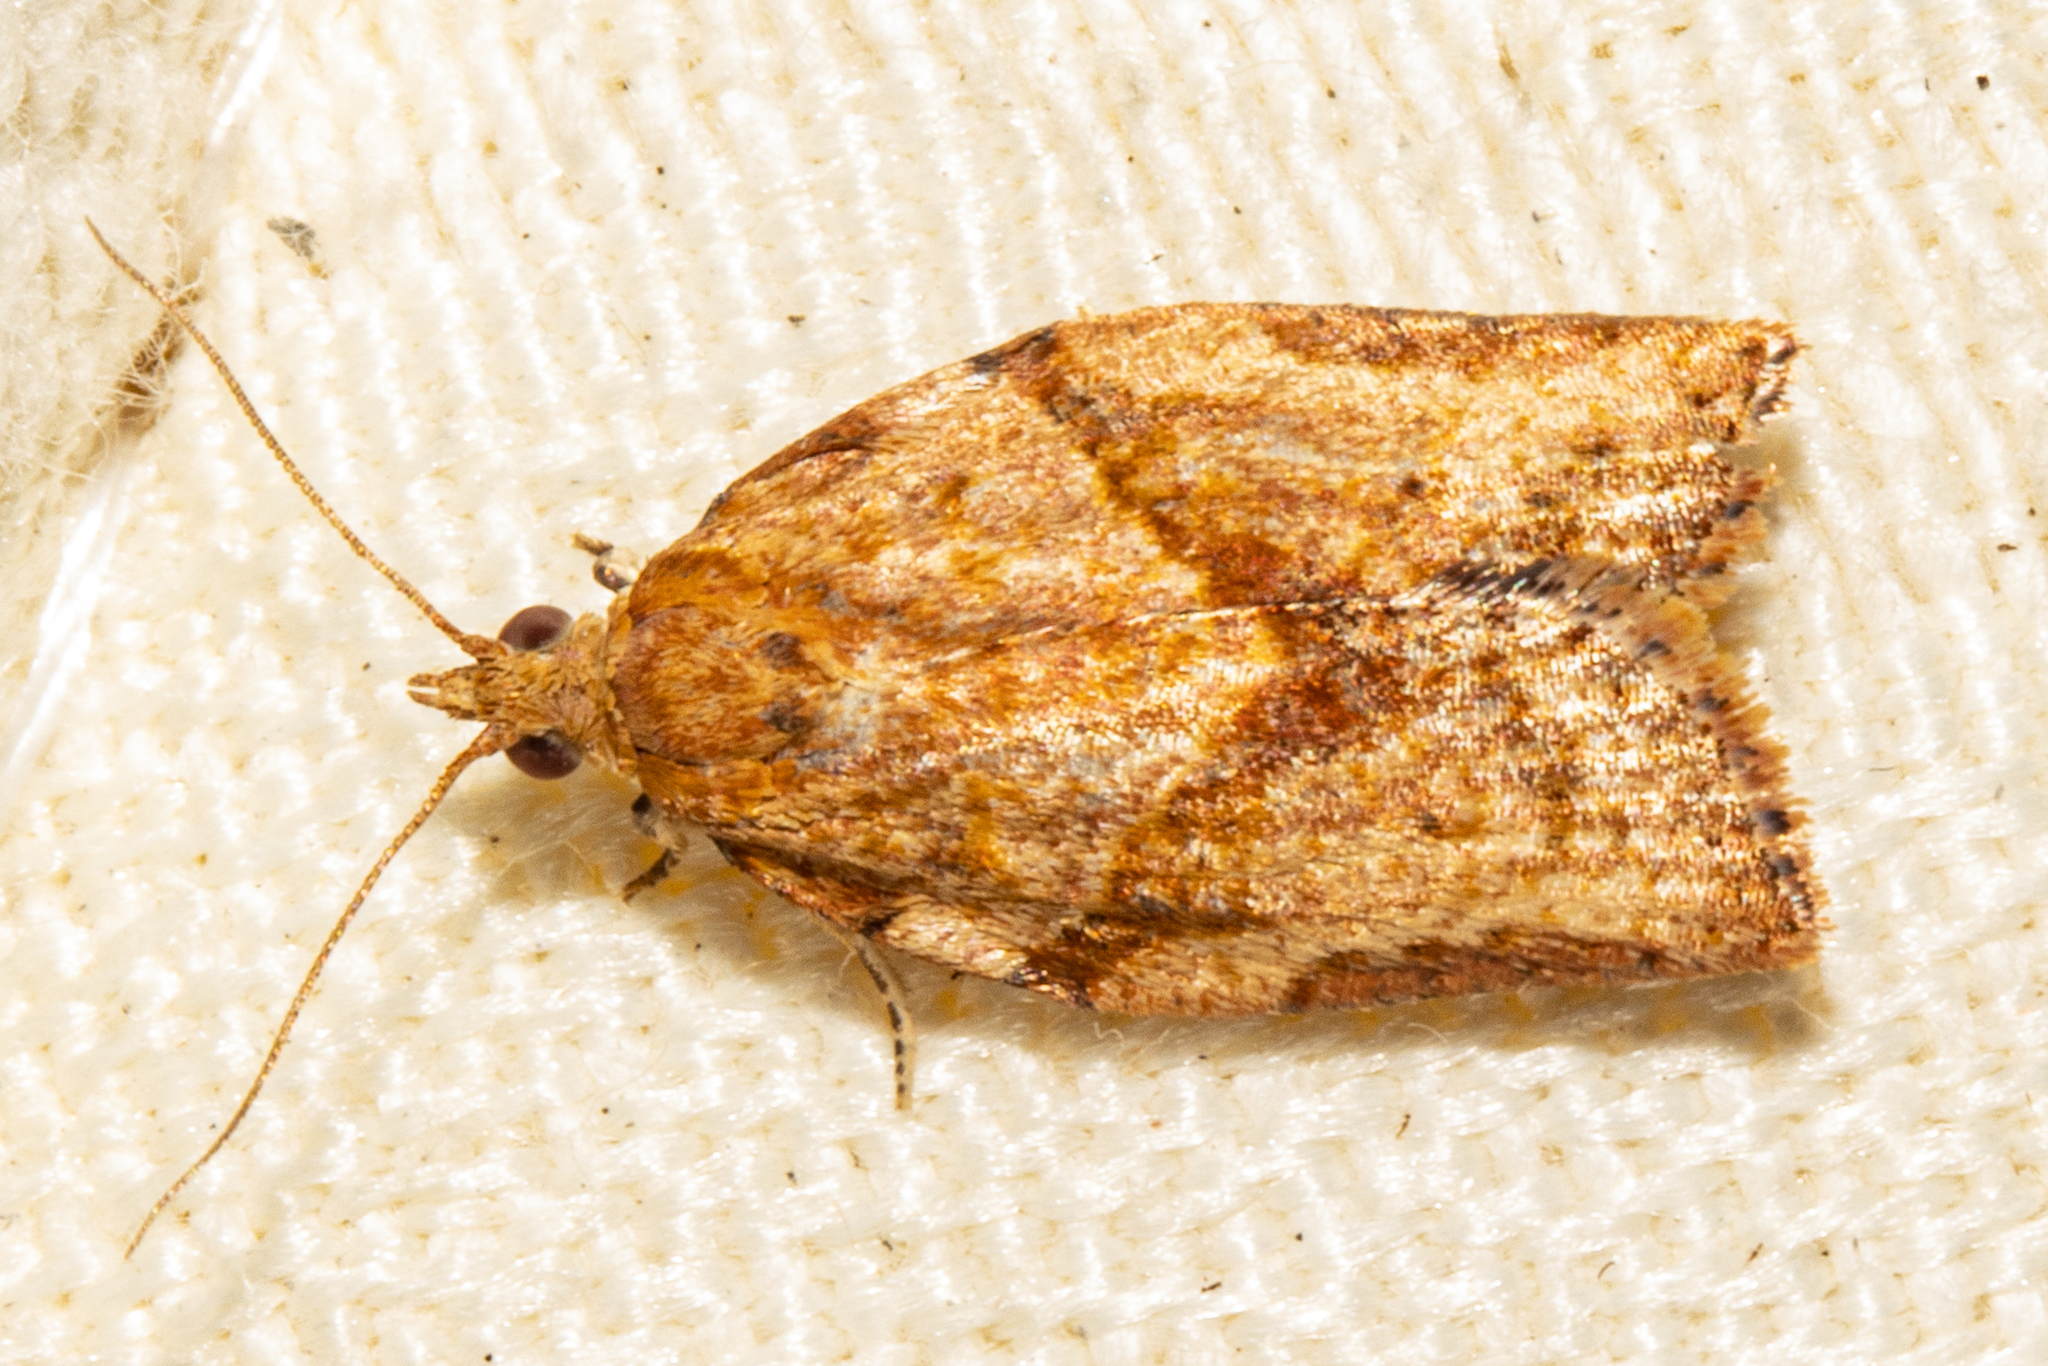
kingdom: Animalia
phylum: Arthropoda
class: Insecta
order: Lepidoptera
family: Tortricidae
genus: Epiphyas
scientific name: Epiphyas postvittana
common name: Light brown apple moth
